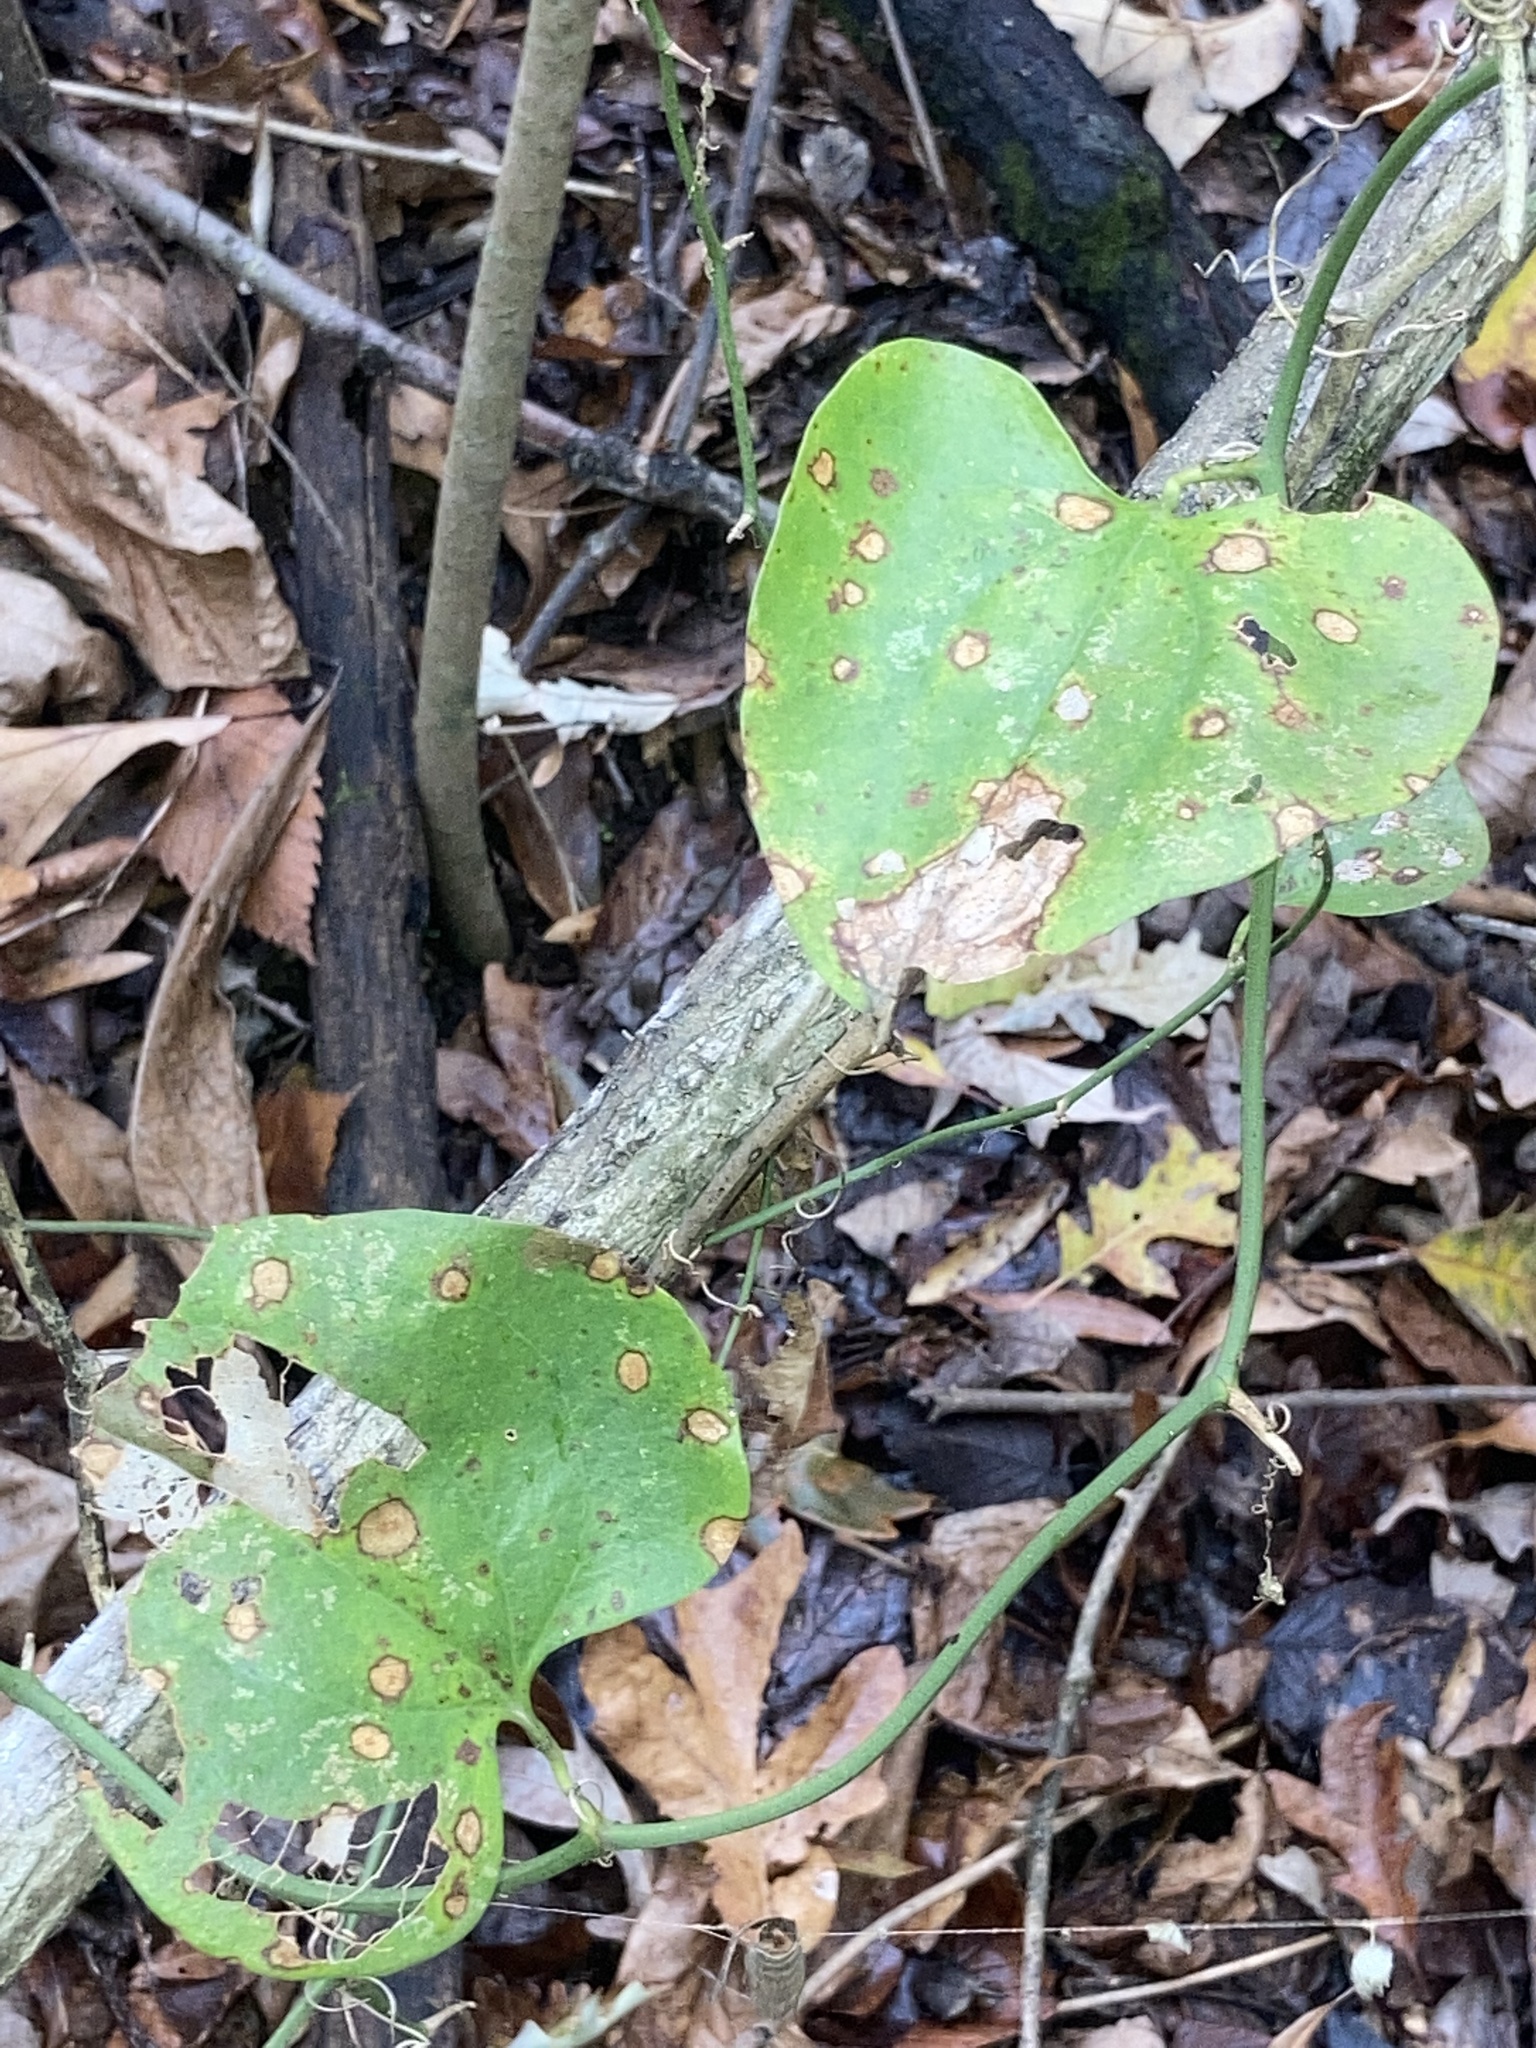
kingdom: Plantae
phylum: Tracheophyta
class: Liliopsida
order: Liliales
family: Smilacaceae
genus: Smilax
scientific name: Smilax bona-nox
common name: Catbrier
